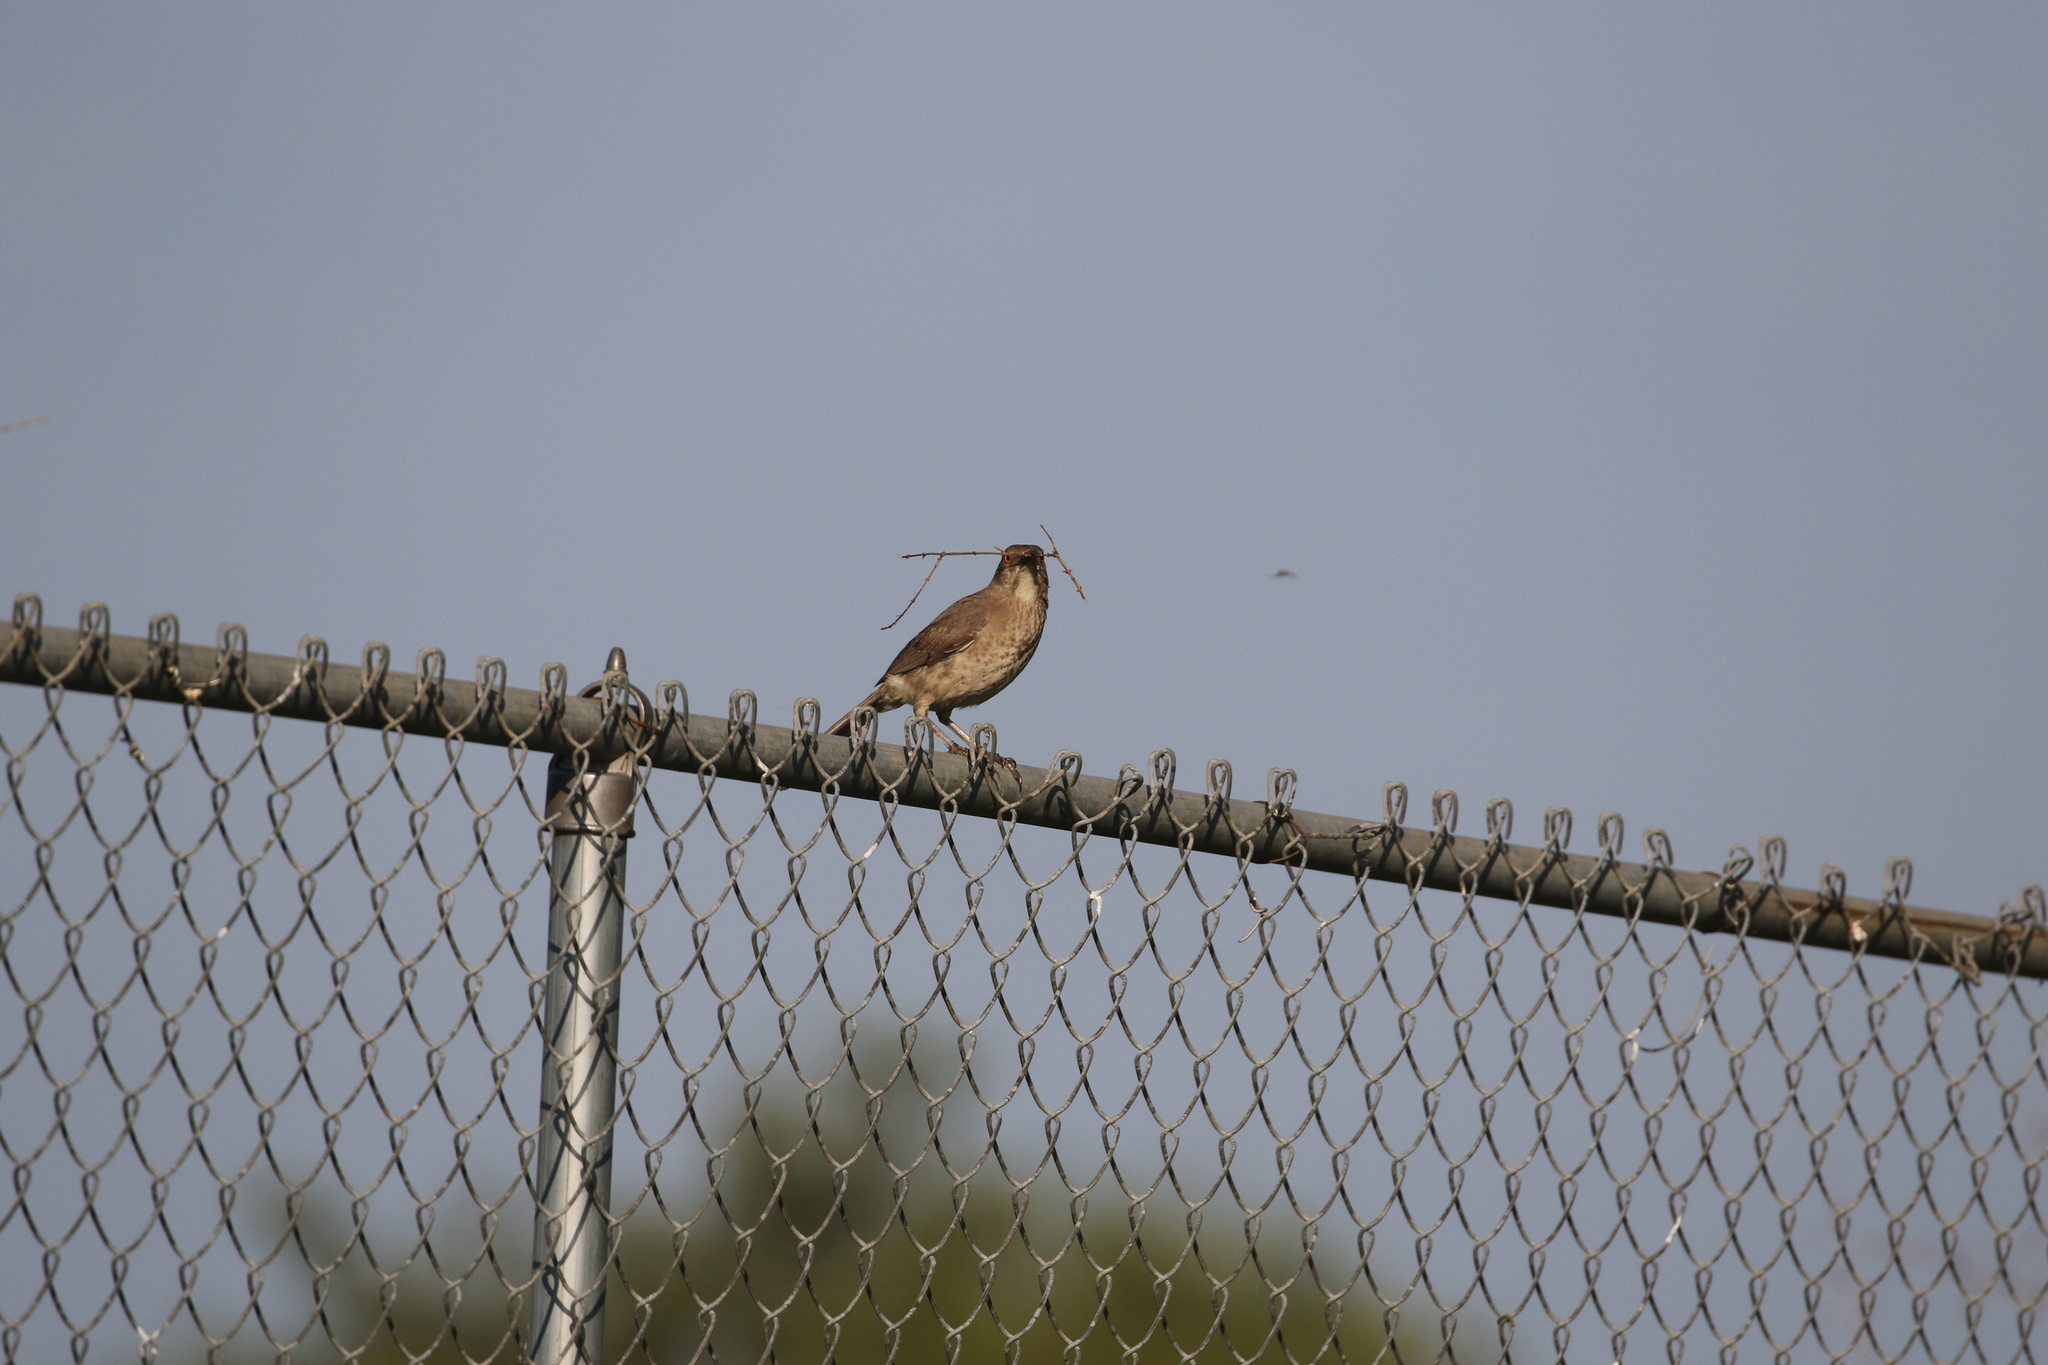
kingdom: Animalia
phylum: Chordata
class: Aves
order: Passeriformes
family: Mimidae
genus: Toxostoma
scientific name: Toxostoma curvirostre
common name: Curve-billed thrasher
